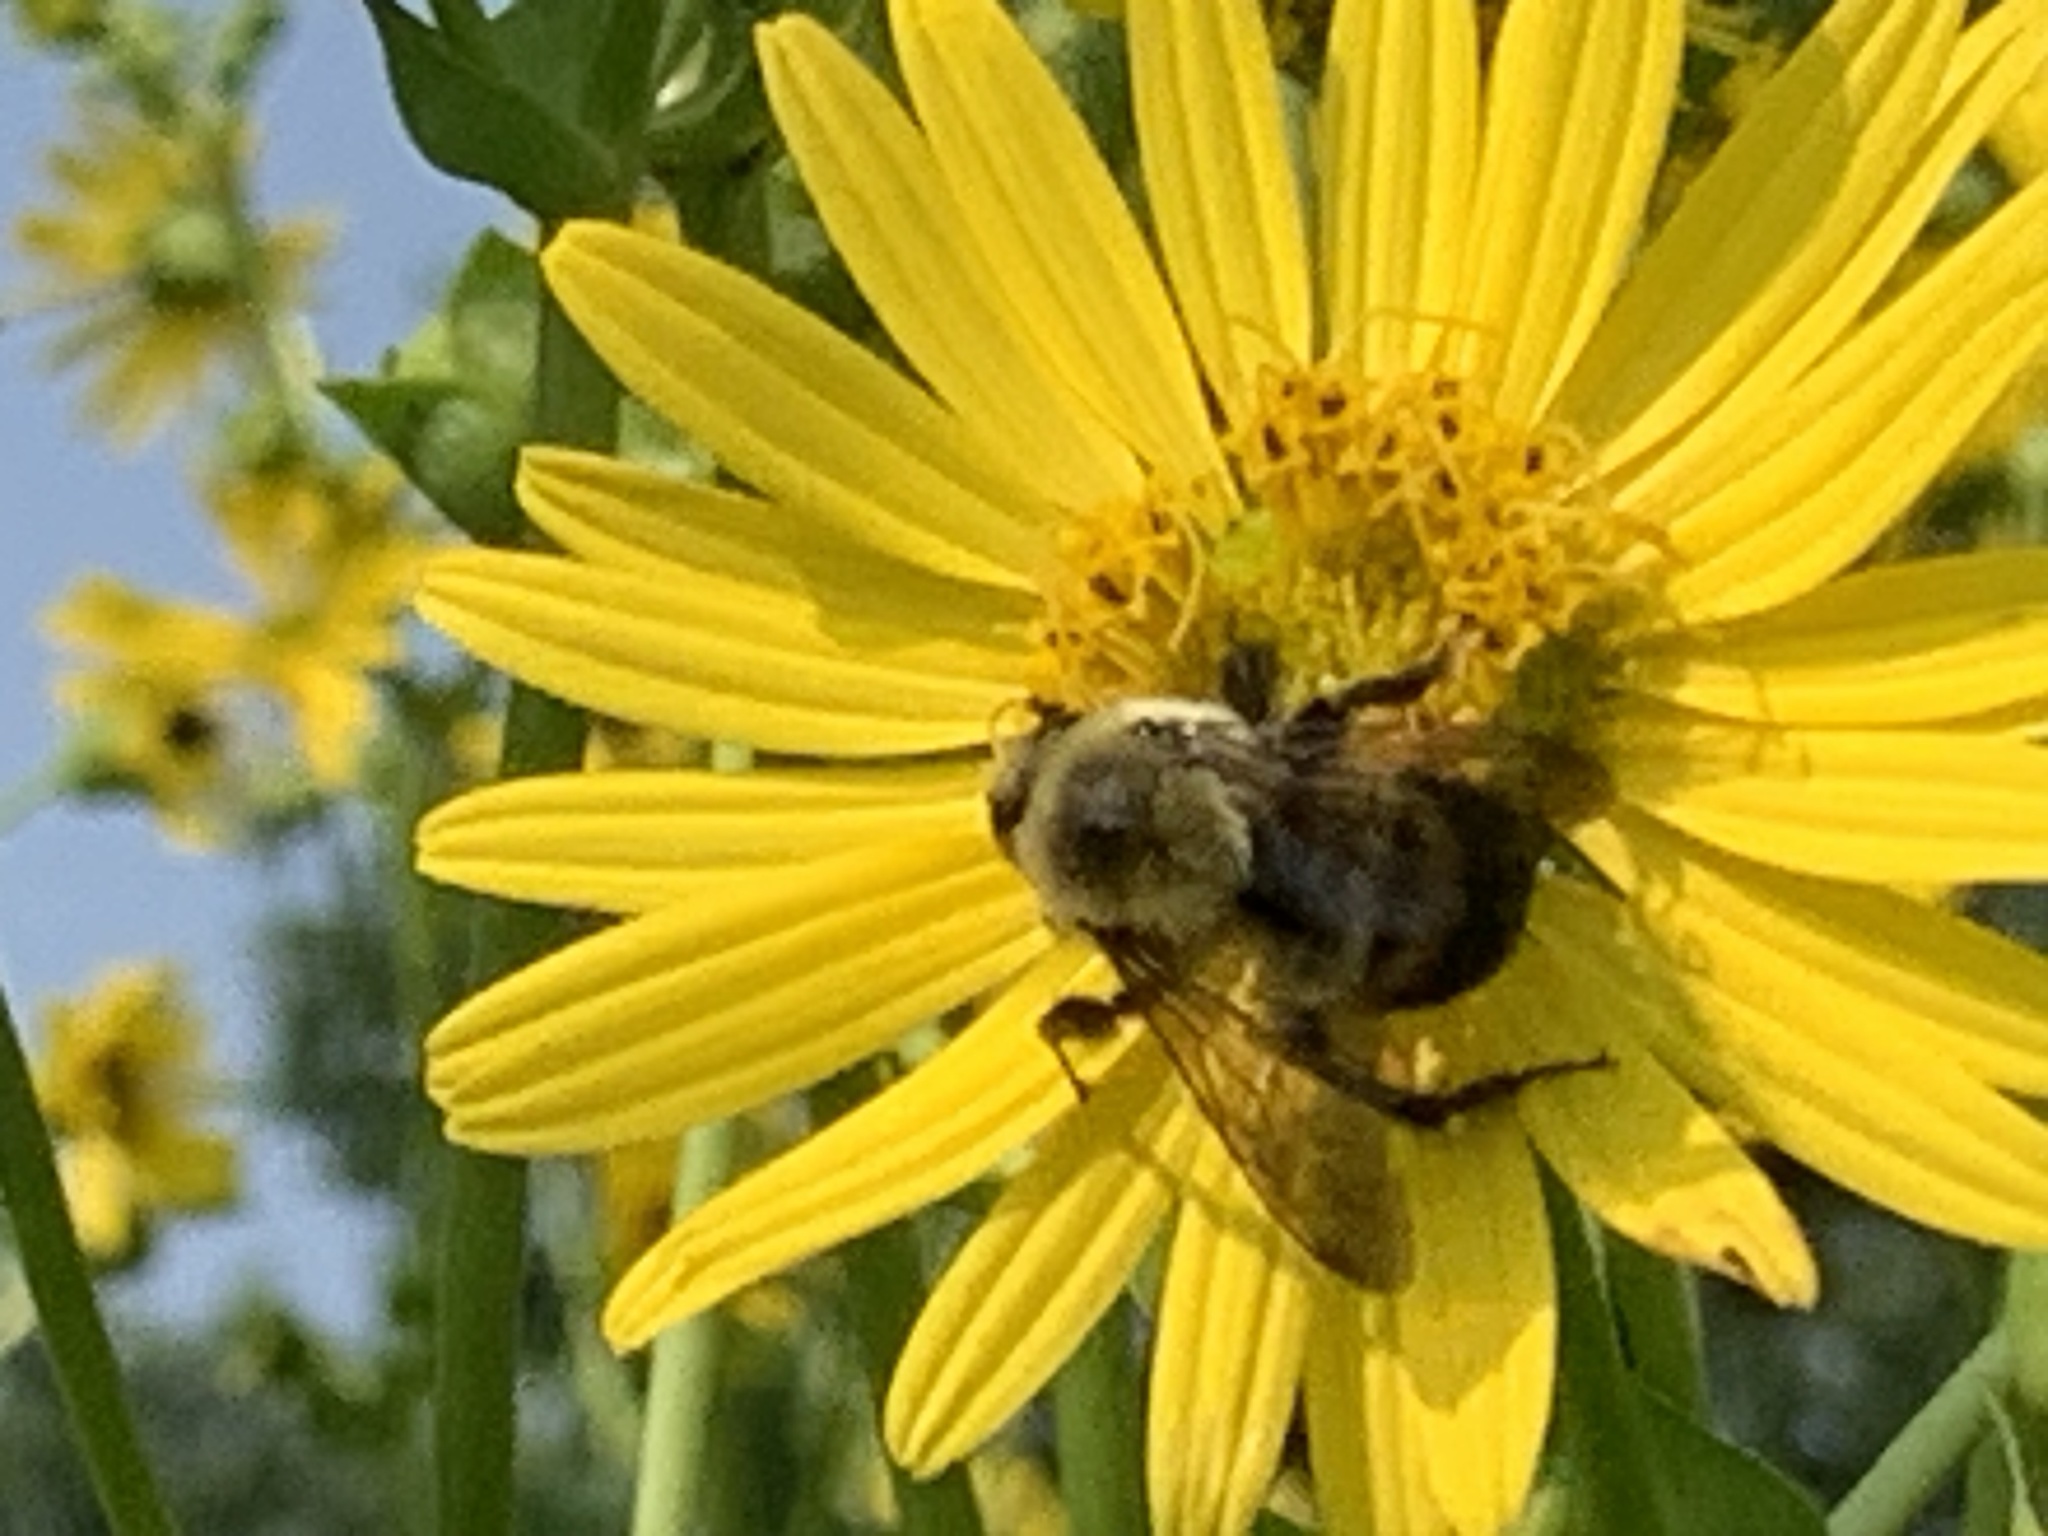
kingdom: Animalia
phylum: Arthropoda
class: Insecta
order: Hymenoptera
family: Apidae
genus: Bombus
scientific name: Bombus griseocollis
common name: Brown-belted bumble bee
